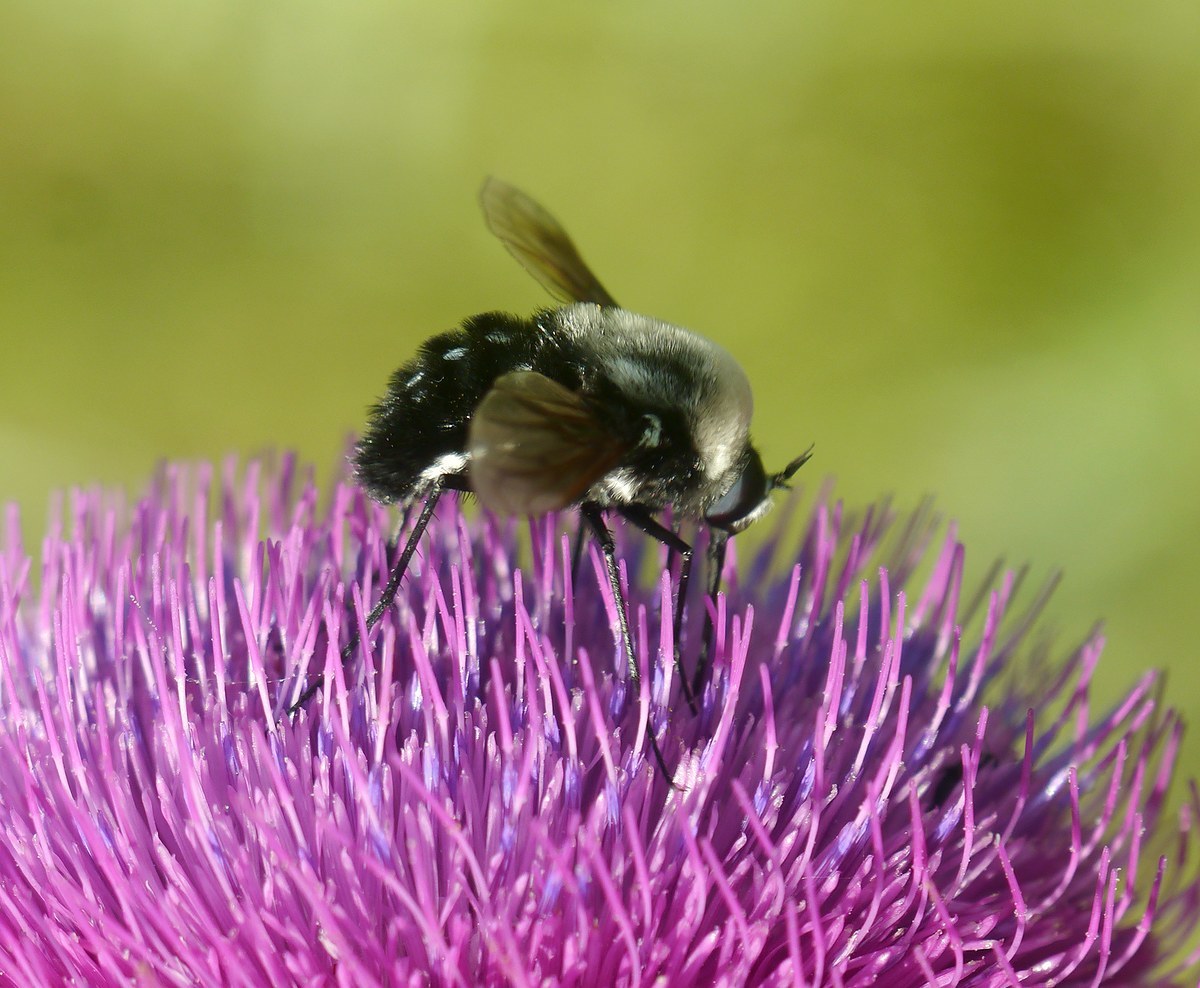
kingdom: Animalia
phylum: Arthropoda
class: Insecta
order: Diptera
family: Bombyliidae
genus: Bombomyia
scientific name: Bombomyia vertebralis
